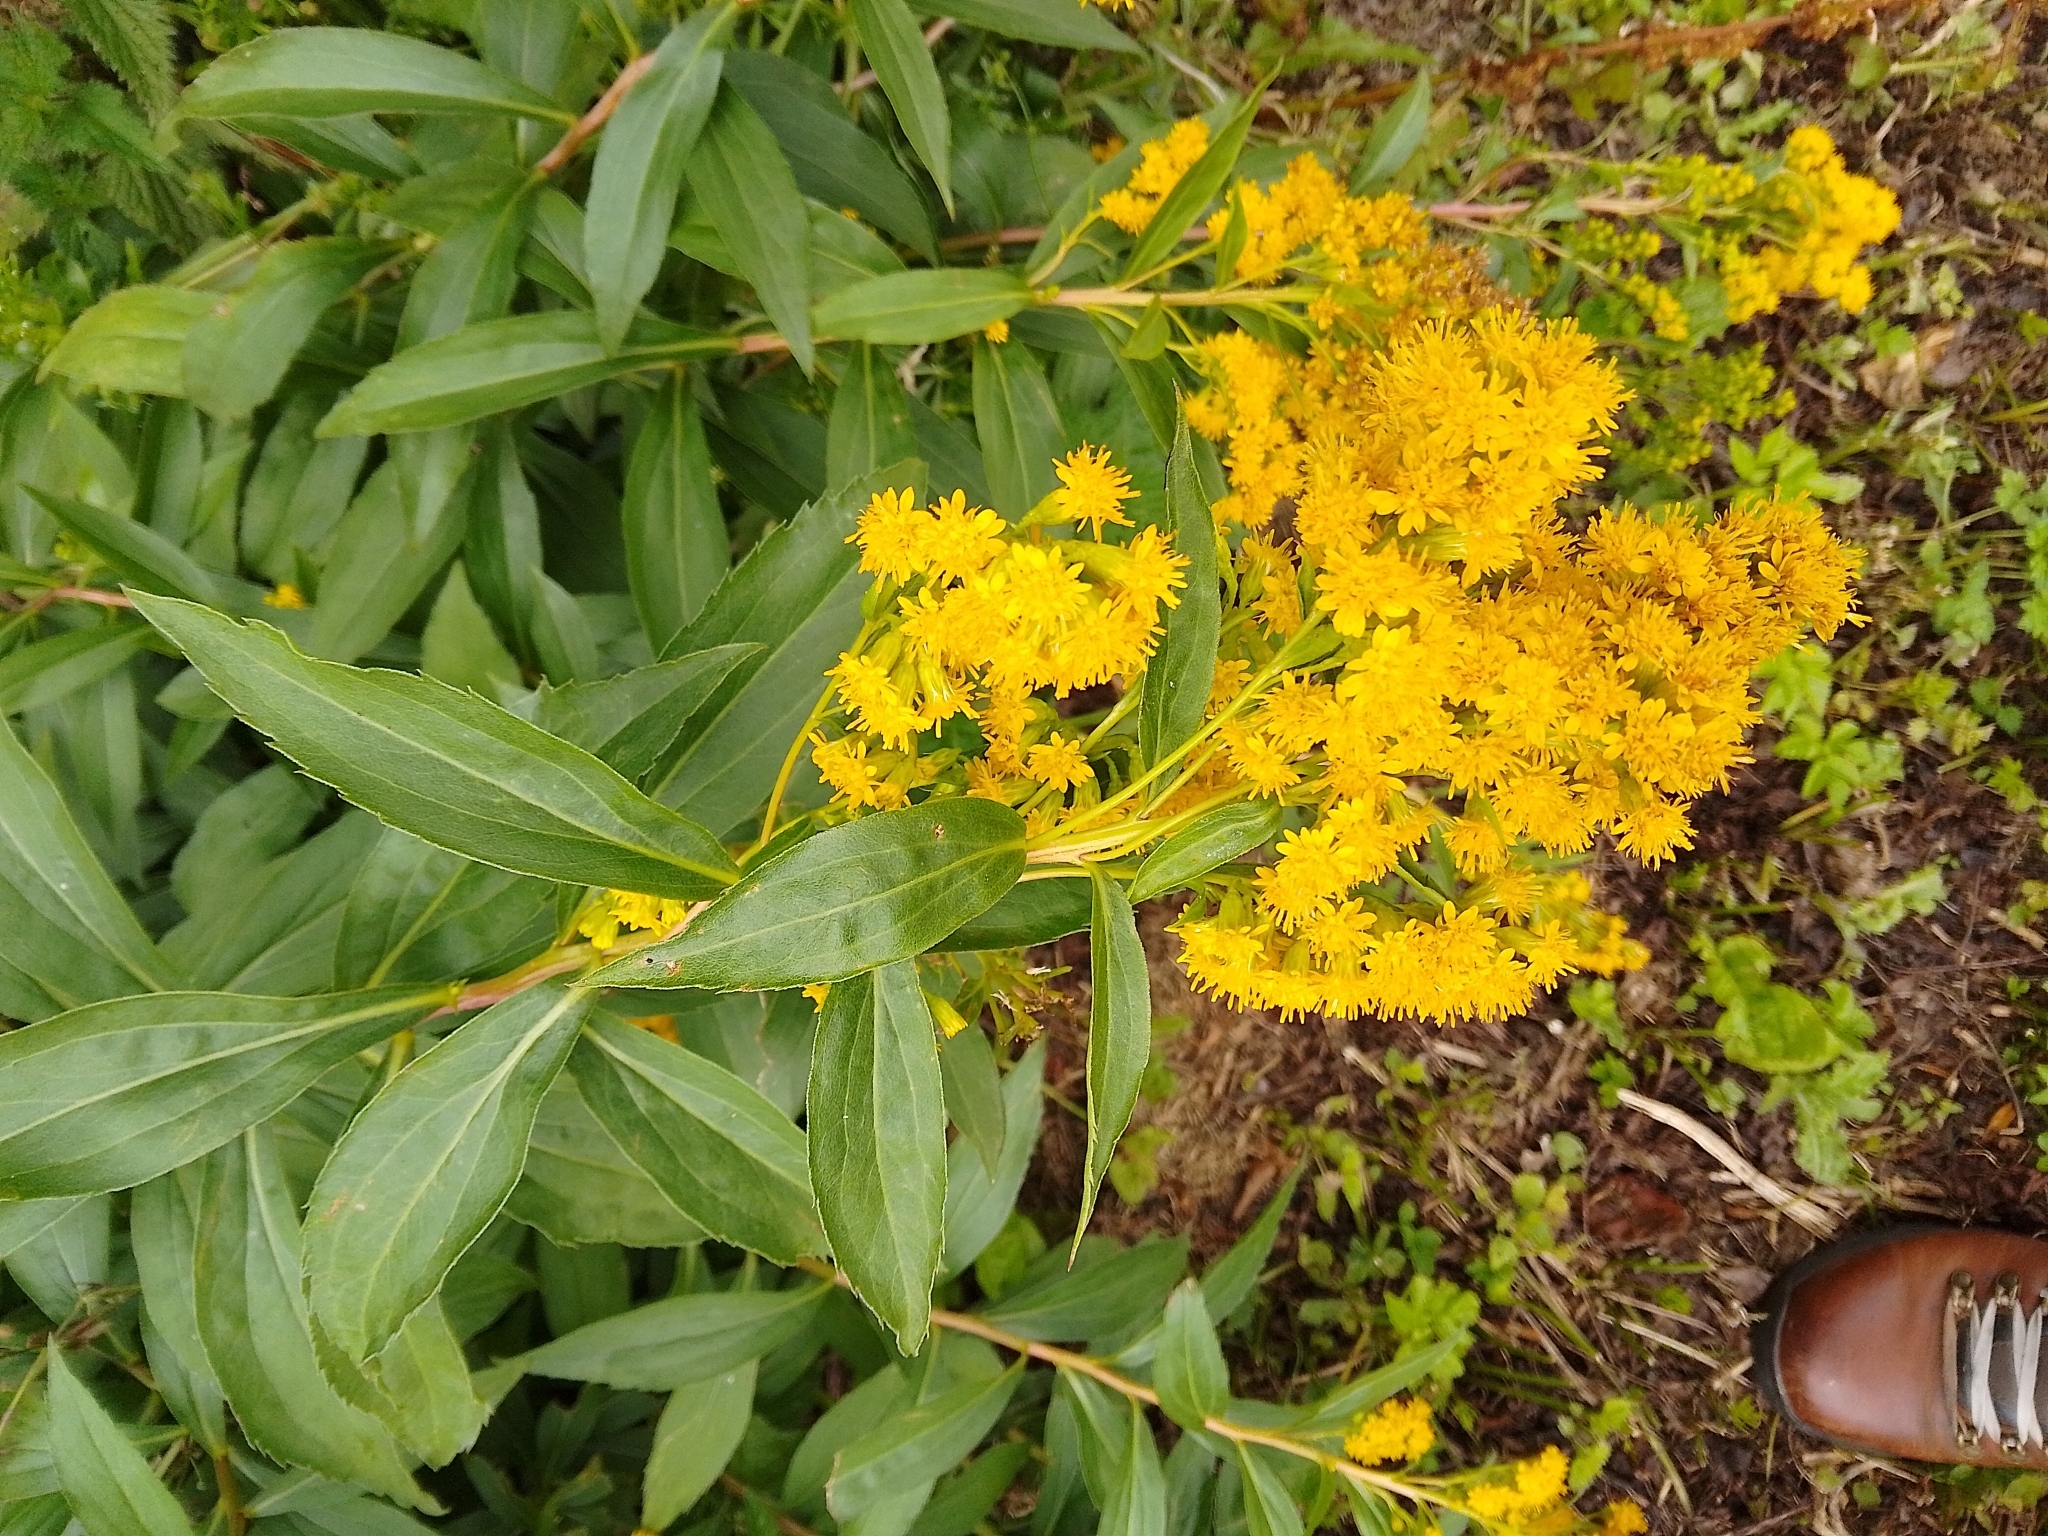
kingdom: Plantae
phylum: Tracheophyta
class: Magnoliopsida
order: Asterales
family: Asteraceae
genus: Solidago
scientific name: Solidago gigantea
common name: Giant goldenrod
